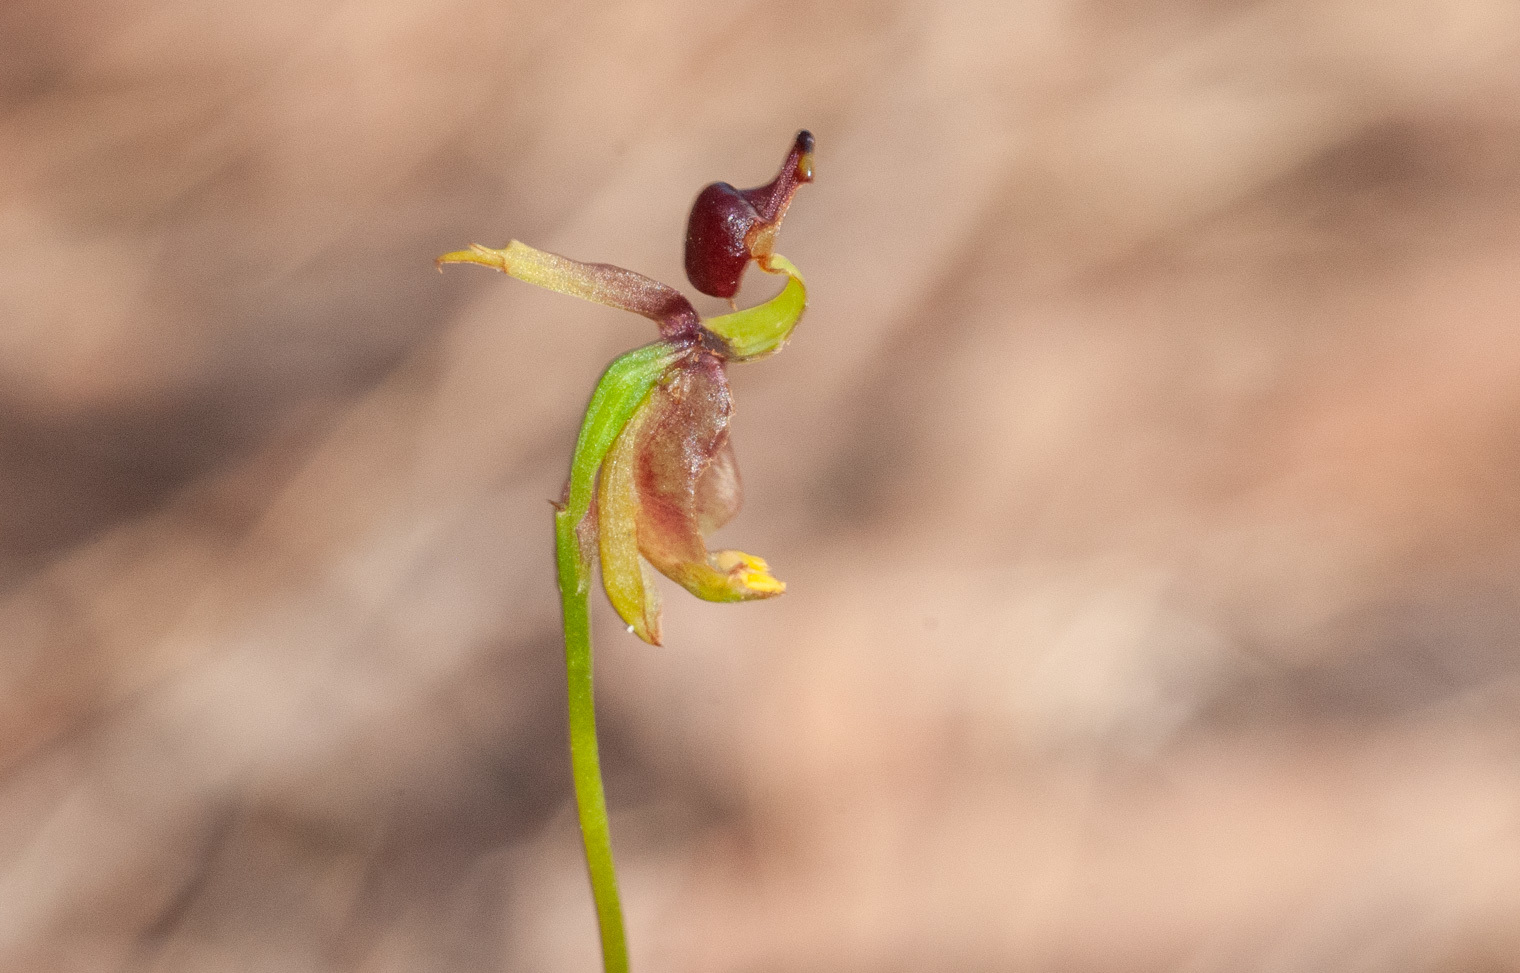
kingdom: Plantae
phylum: Tracheophyta
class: Liliopsida
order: Asparagales
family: Orchidaceae
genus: Caleana
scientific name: Caleana major
